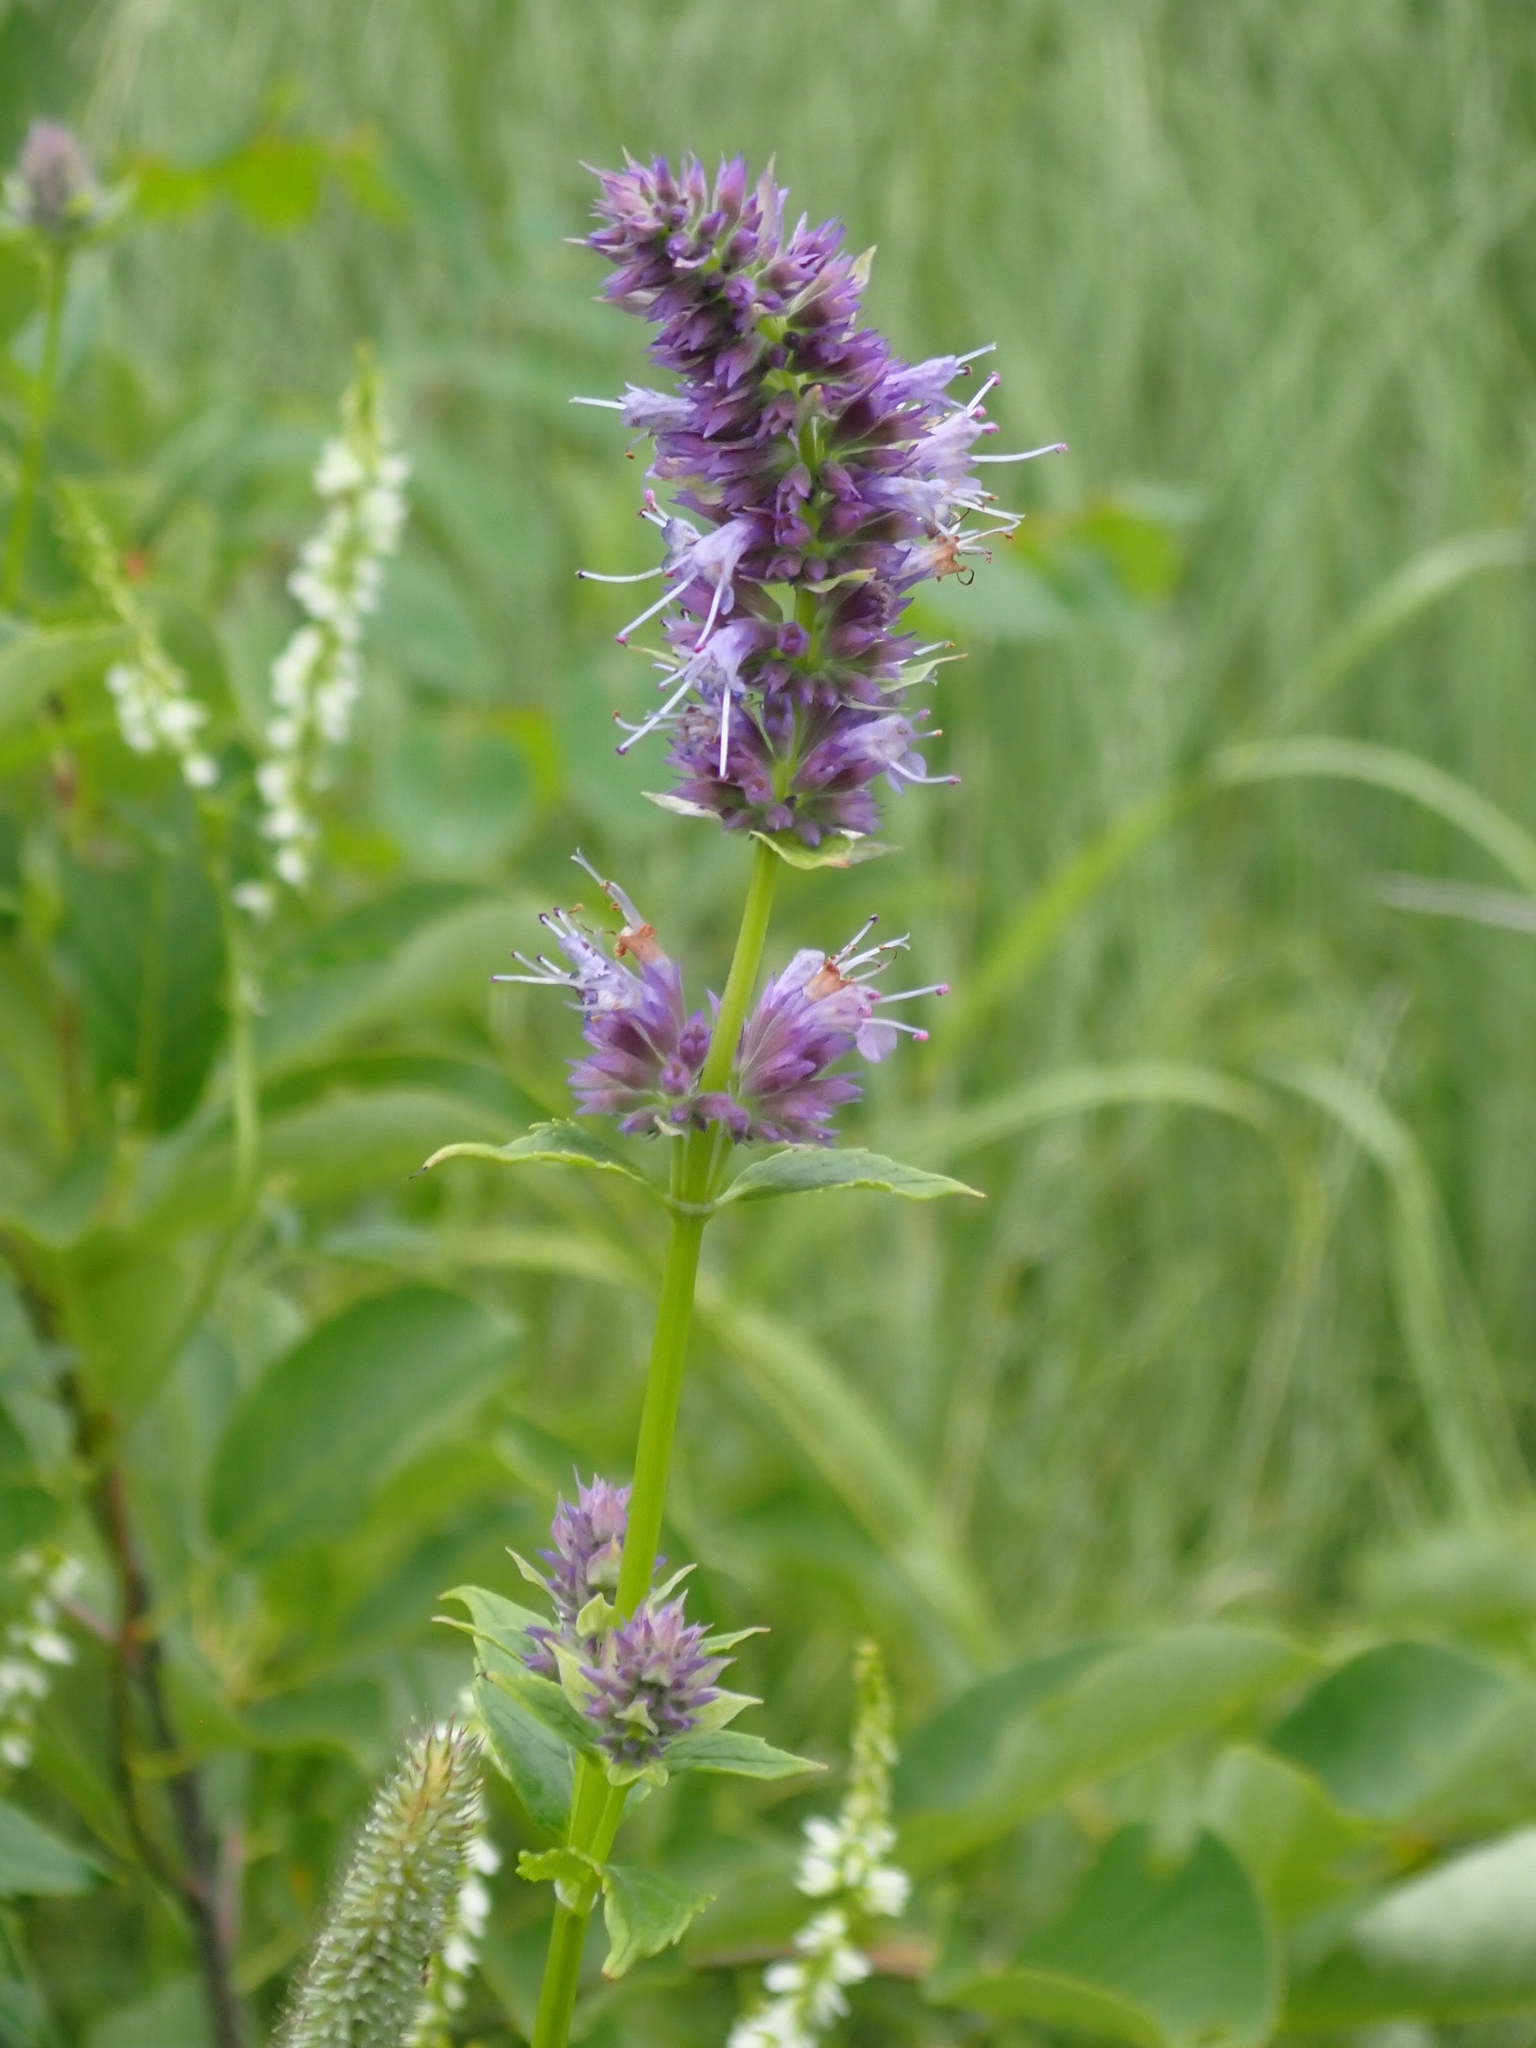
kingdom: Plantae
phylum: Tracheophyta
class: Magnoliopsida
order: Lamiales
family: Lamiaceae
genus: Agastache
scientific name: Agastache foeniculum
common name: Anise hyssop
